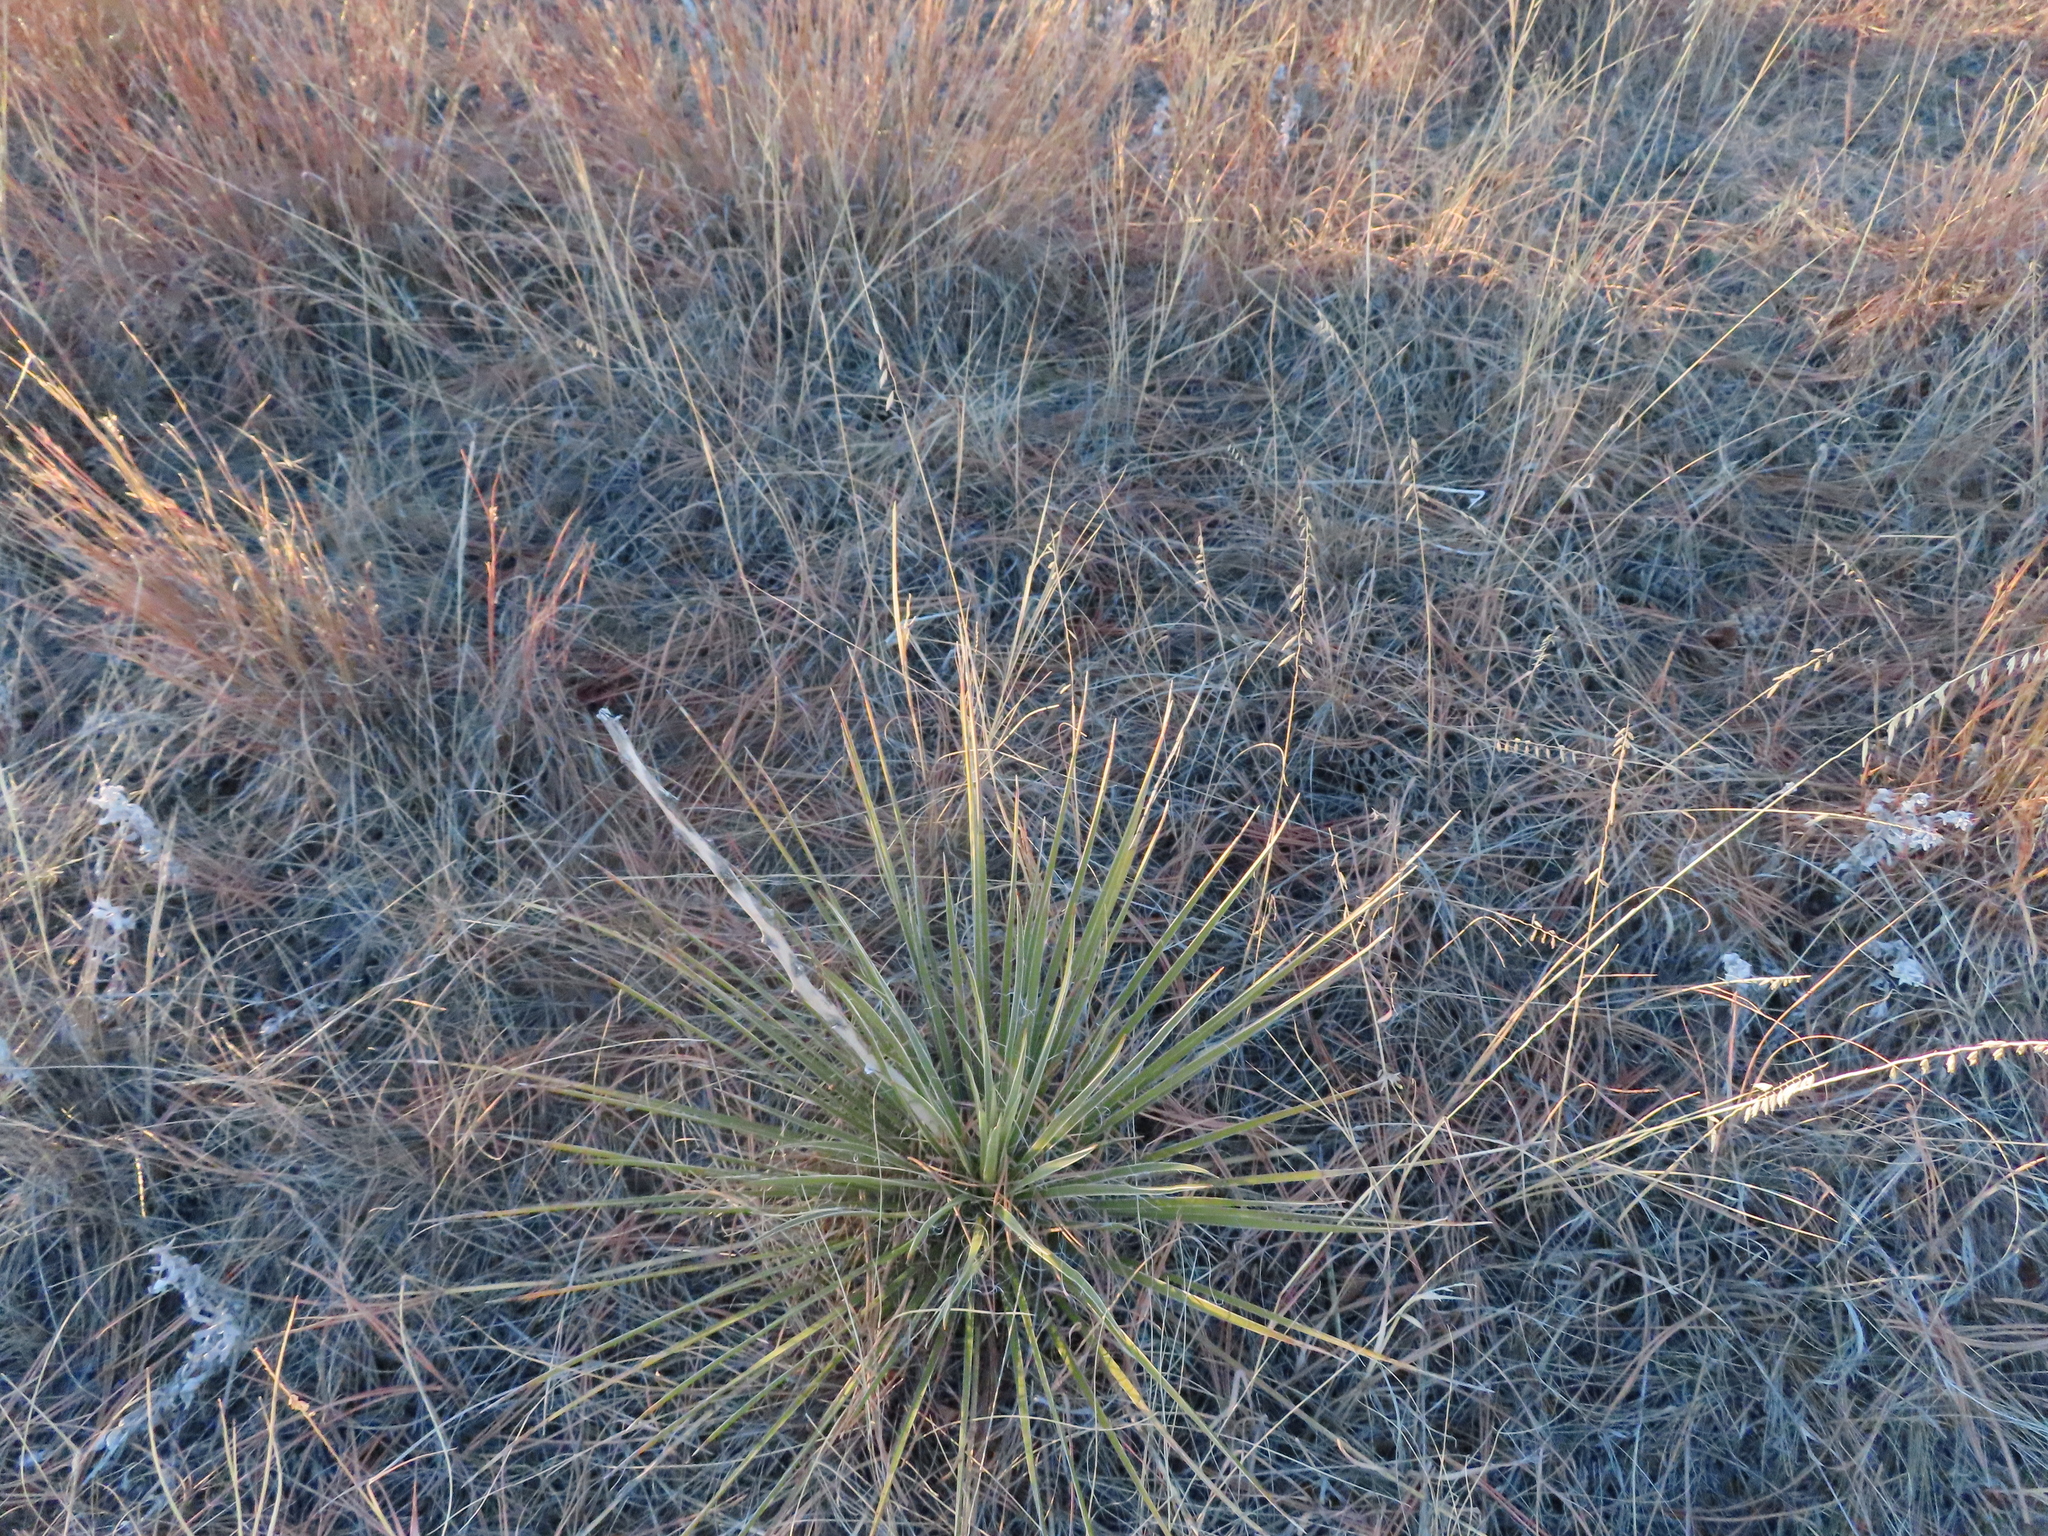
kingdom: Plantae
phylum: Tracheophyta
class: Liliopsida
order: Asparagales
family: Asparagaceae
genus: Yucca
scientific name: Yucca glauca
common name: Great plains yucca
